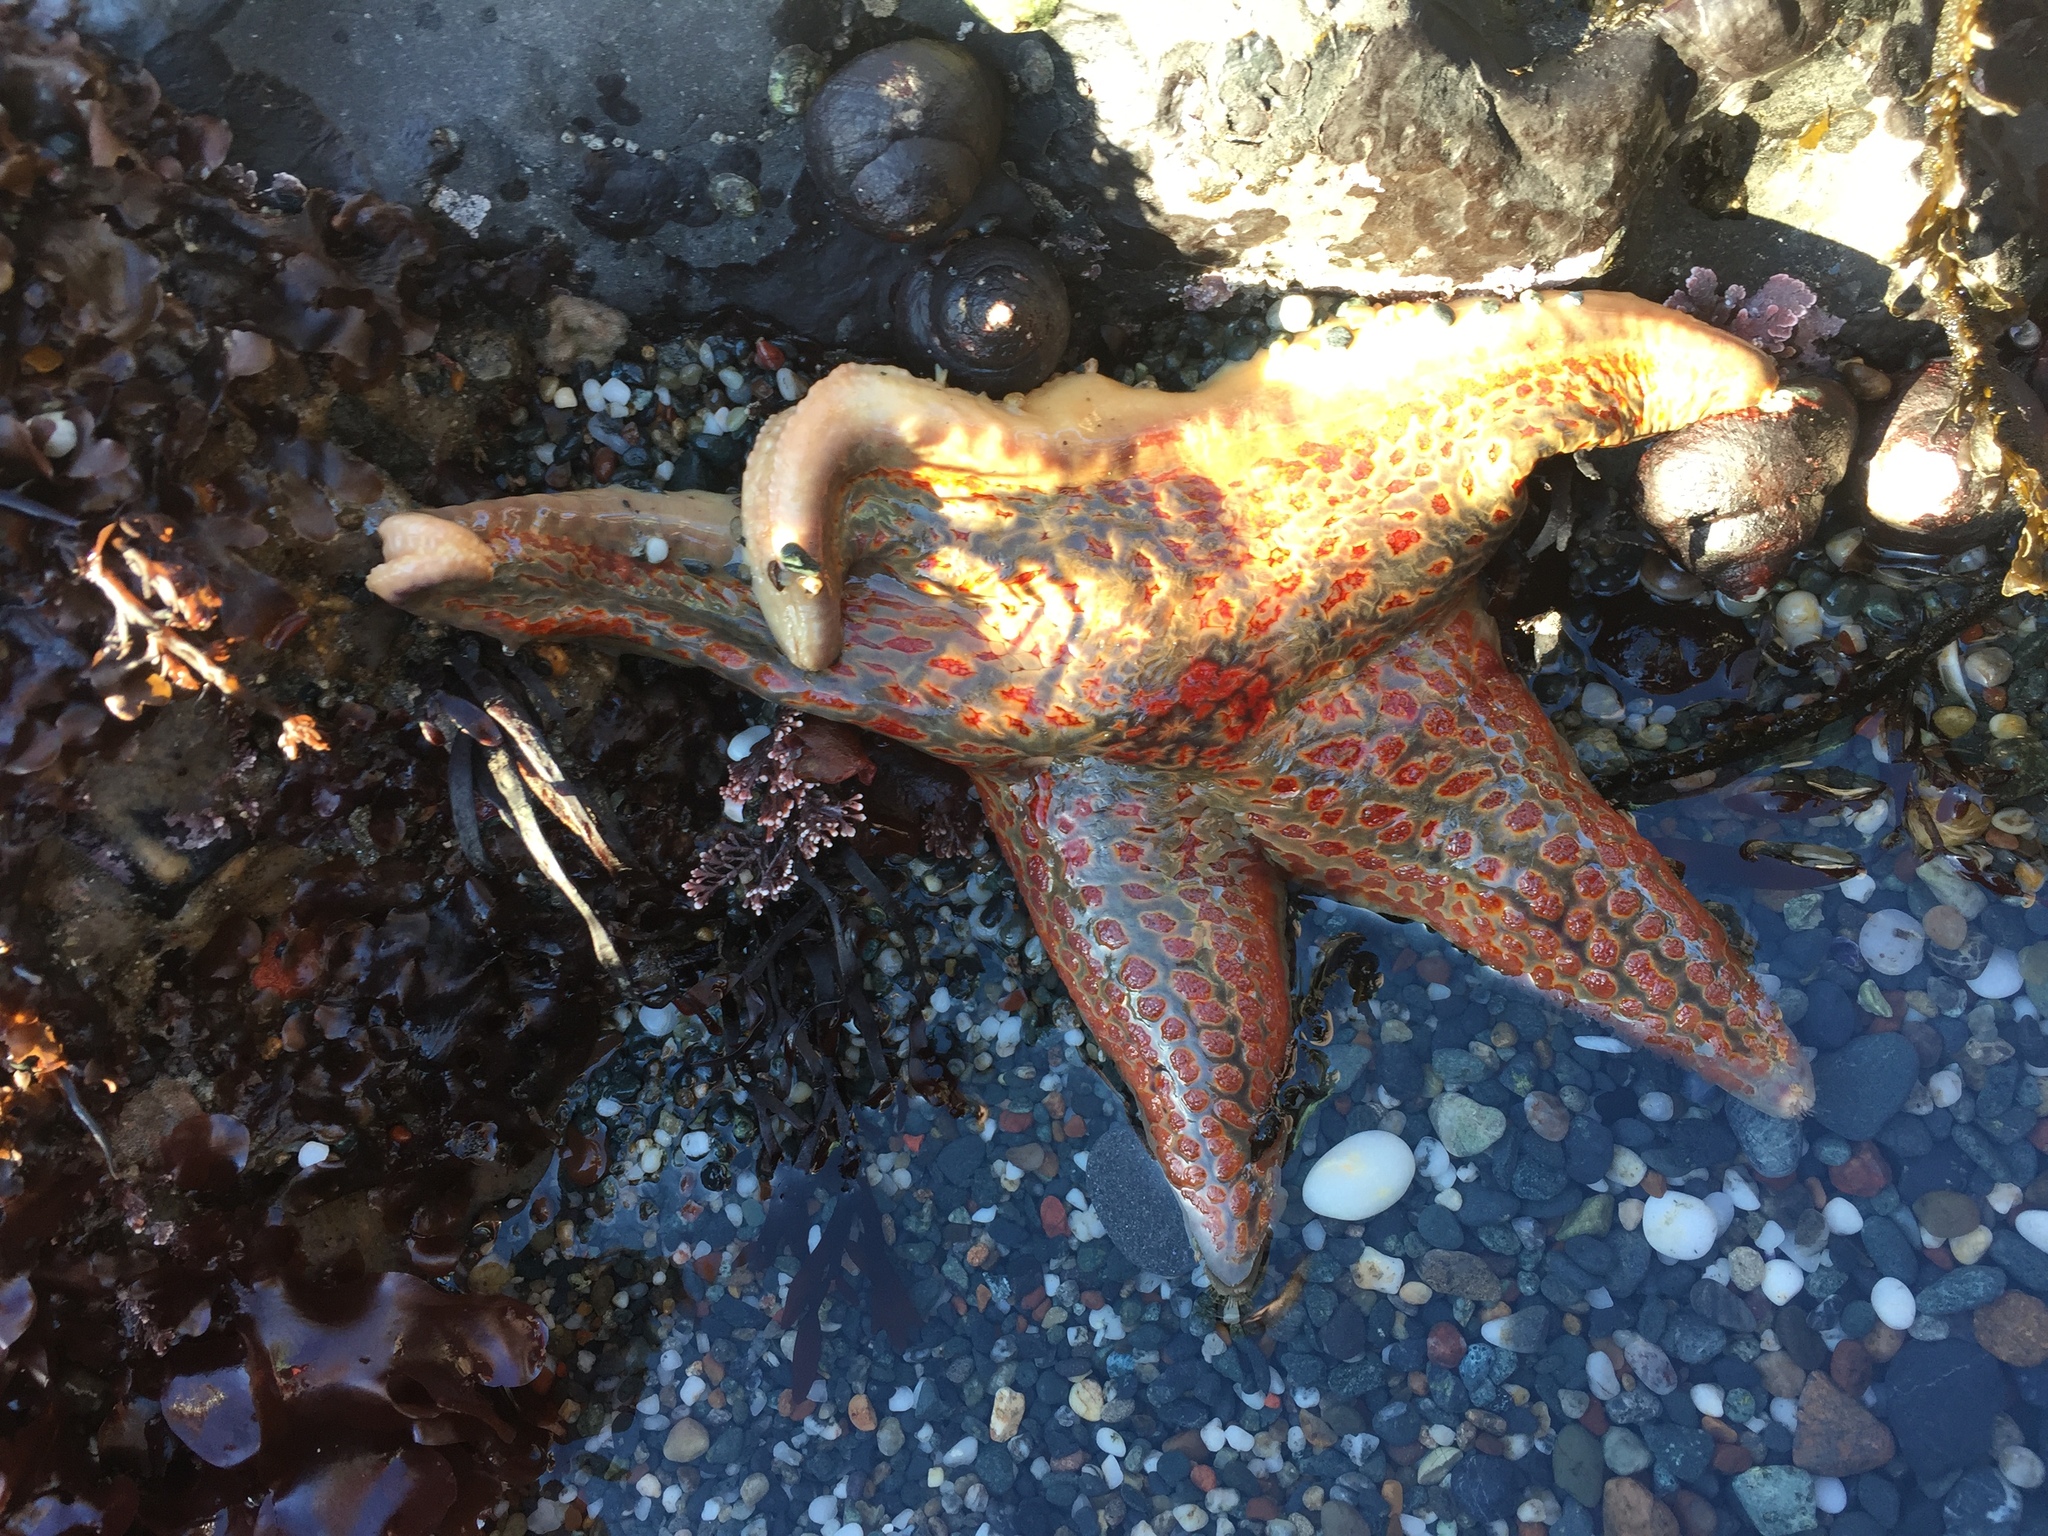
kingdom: Animalia
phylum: Echinodermata
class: Asteroidea
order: Valvatida
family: Asteropseidae
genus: Dermasterias
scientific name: Dermasterias imbricata
